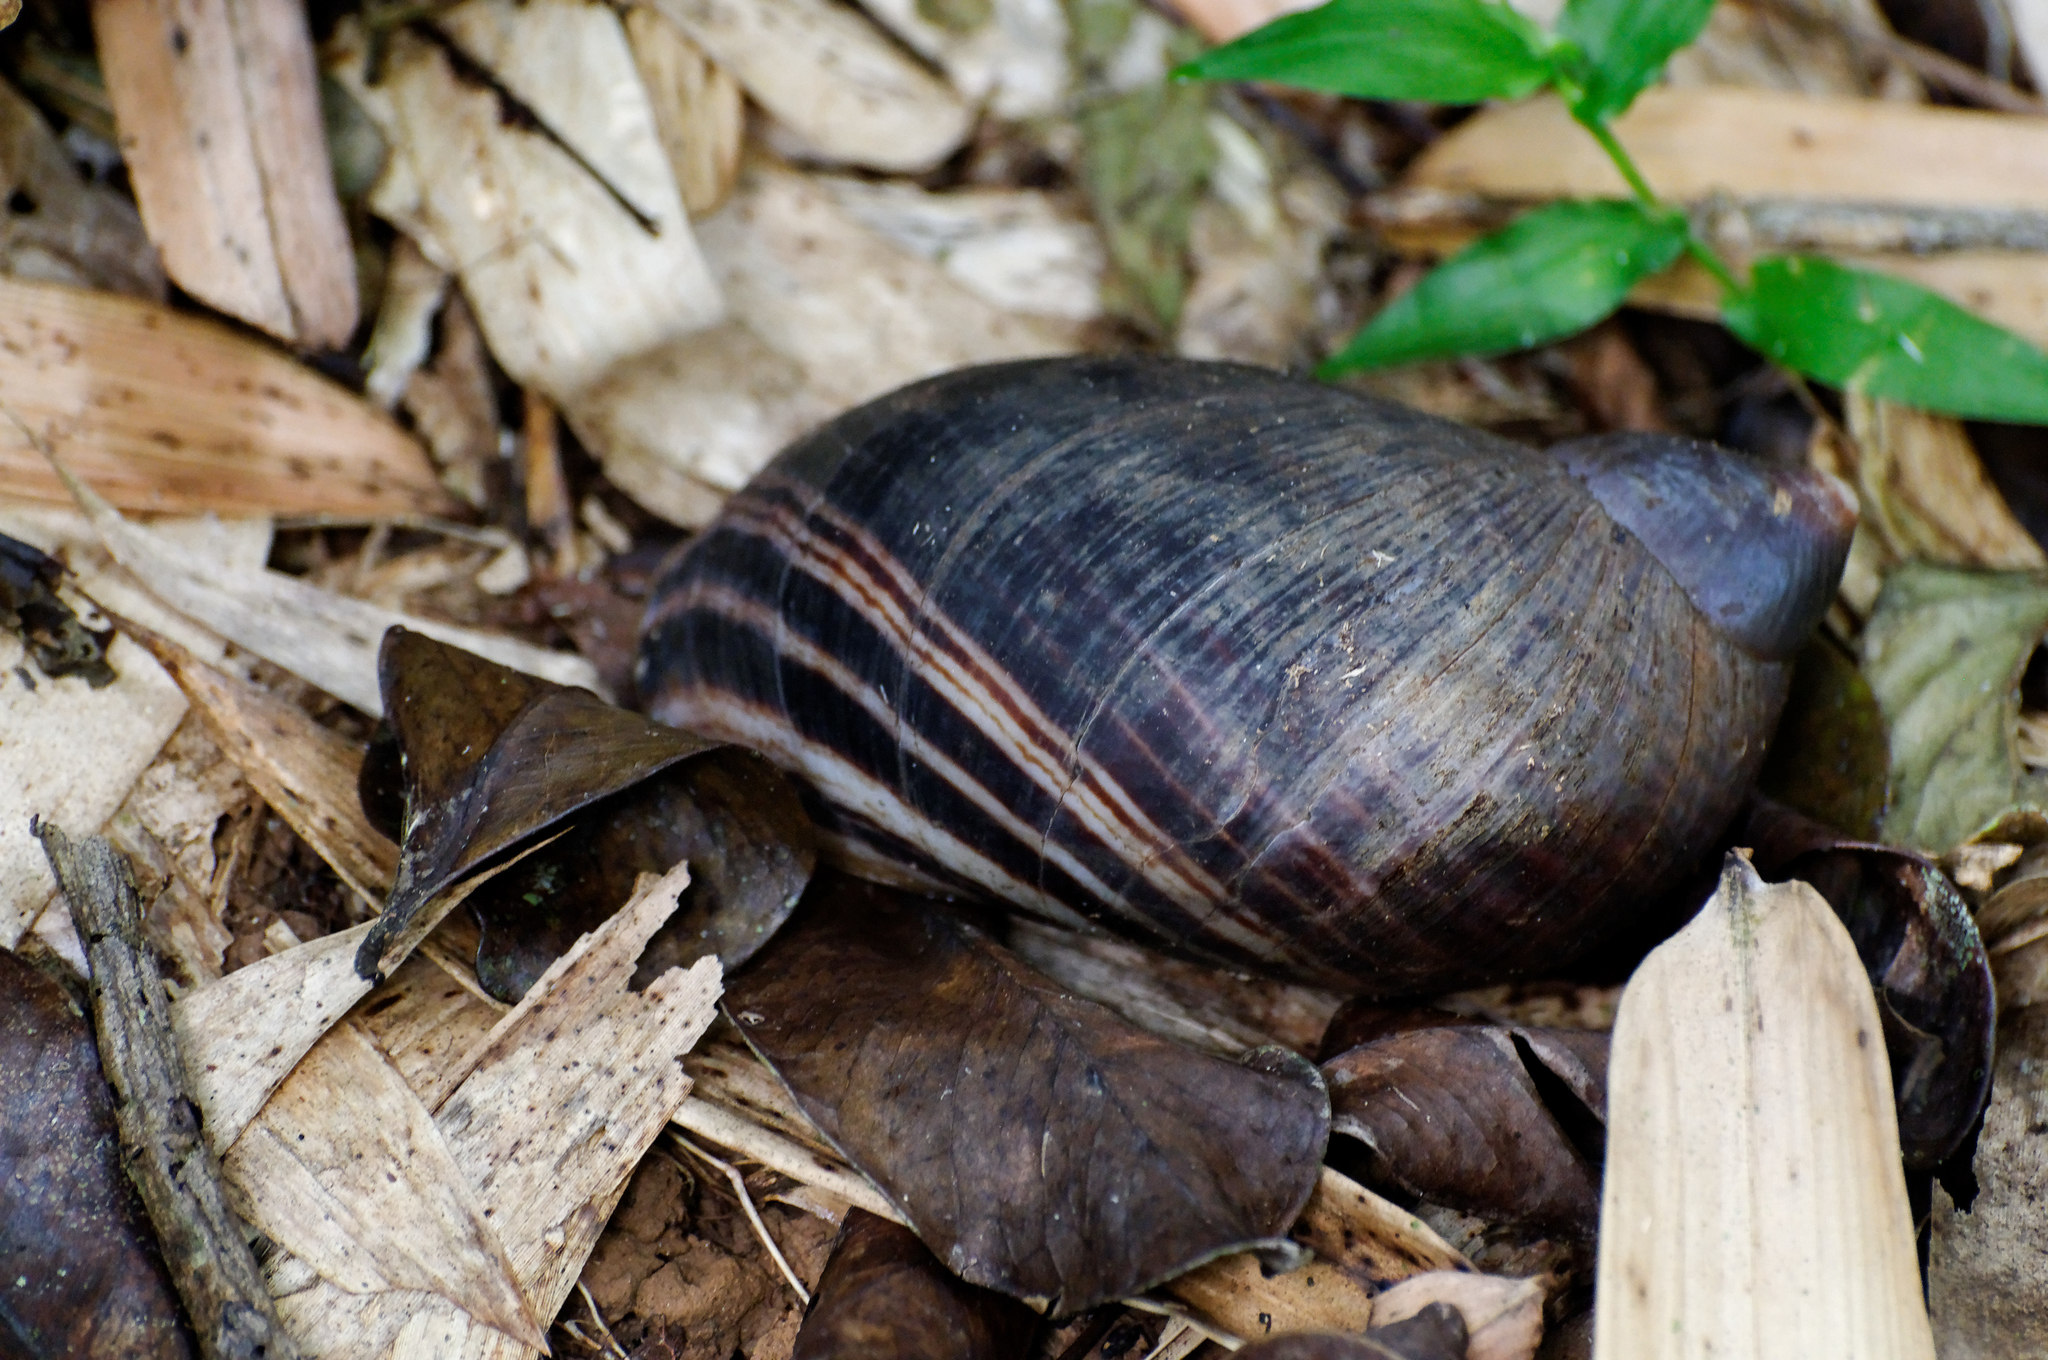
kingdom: Animalia
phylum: Mollusca
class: Gastropoda
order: Stylommatophora
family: Acavidae
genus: Embertoniphanta
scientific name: Embertoniphanta farafanga
